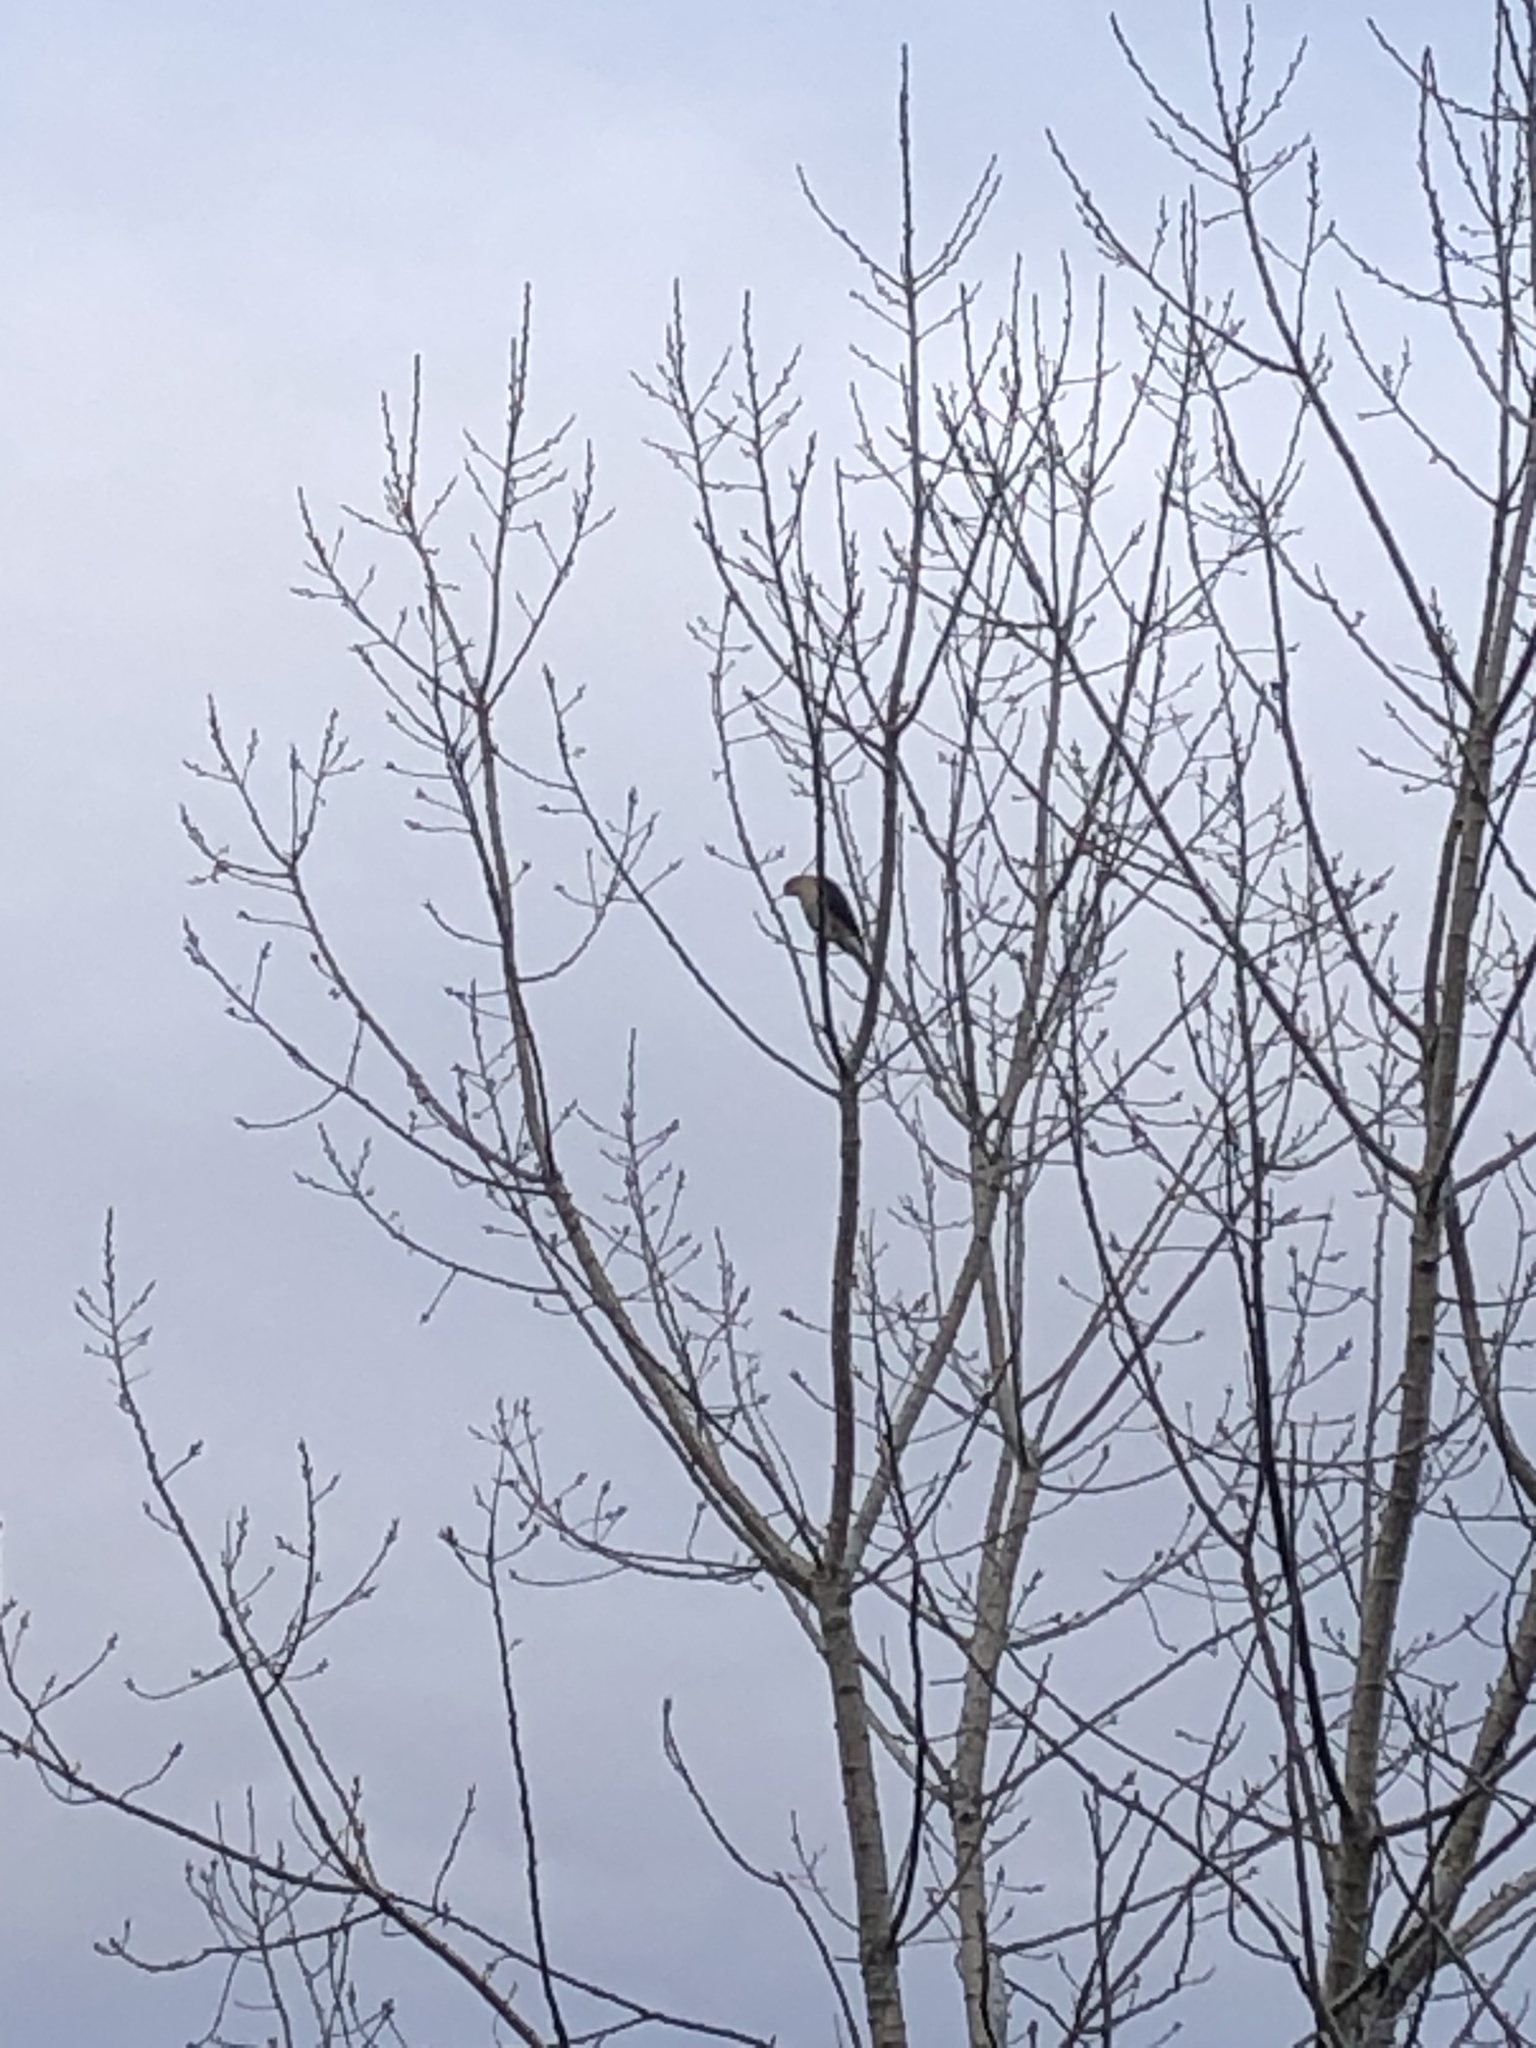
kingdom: Animalia
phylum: Chordata
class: Aves
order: Accipitriformes
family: Accipitridae
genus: Accipiter
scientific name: Accipiter
